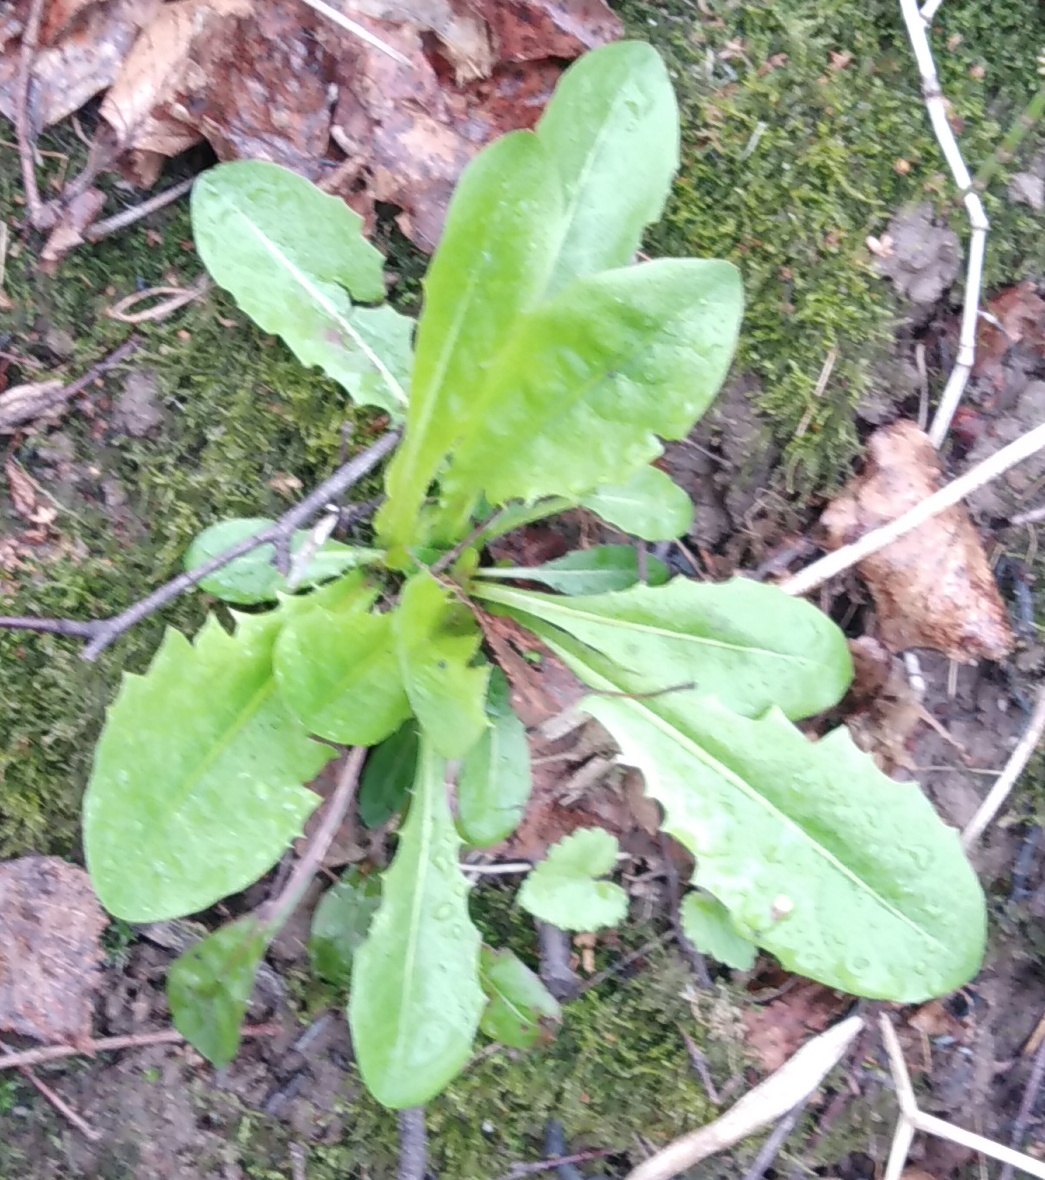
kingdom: Plantae
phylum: Tracheophyta
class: Magnoliopsida
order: Asterales
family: Asteraceae
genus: Taraxacum
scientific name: Taraxacum officinale
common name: Common dandelion
